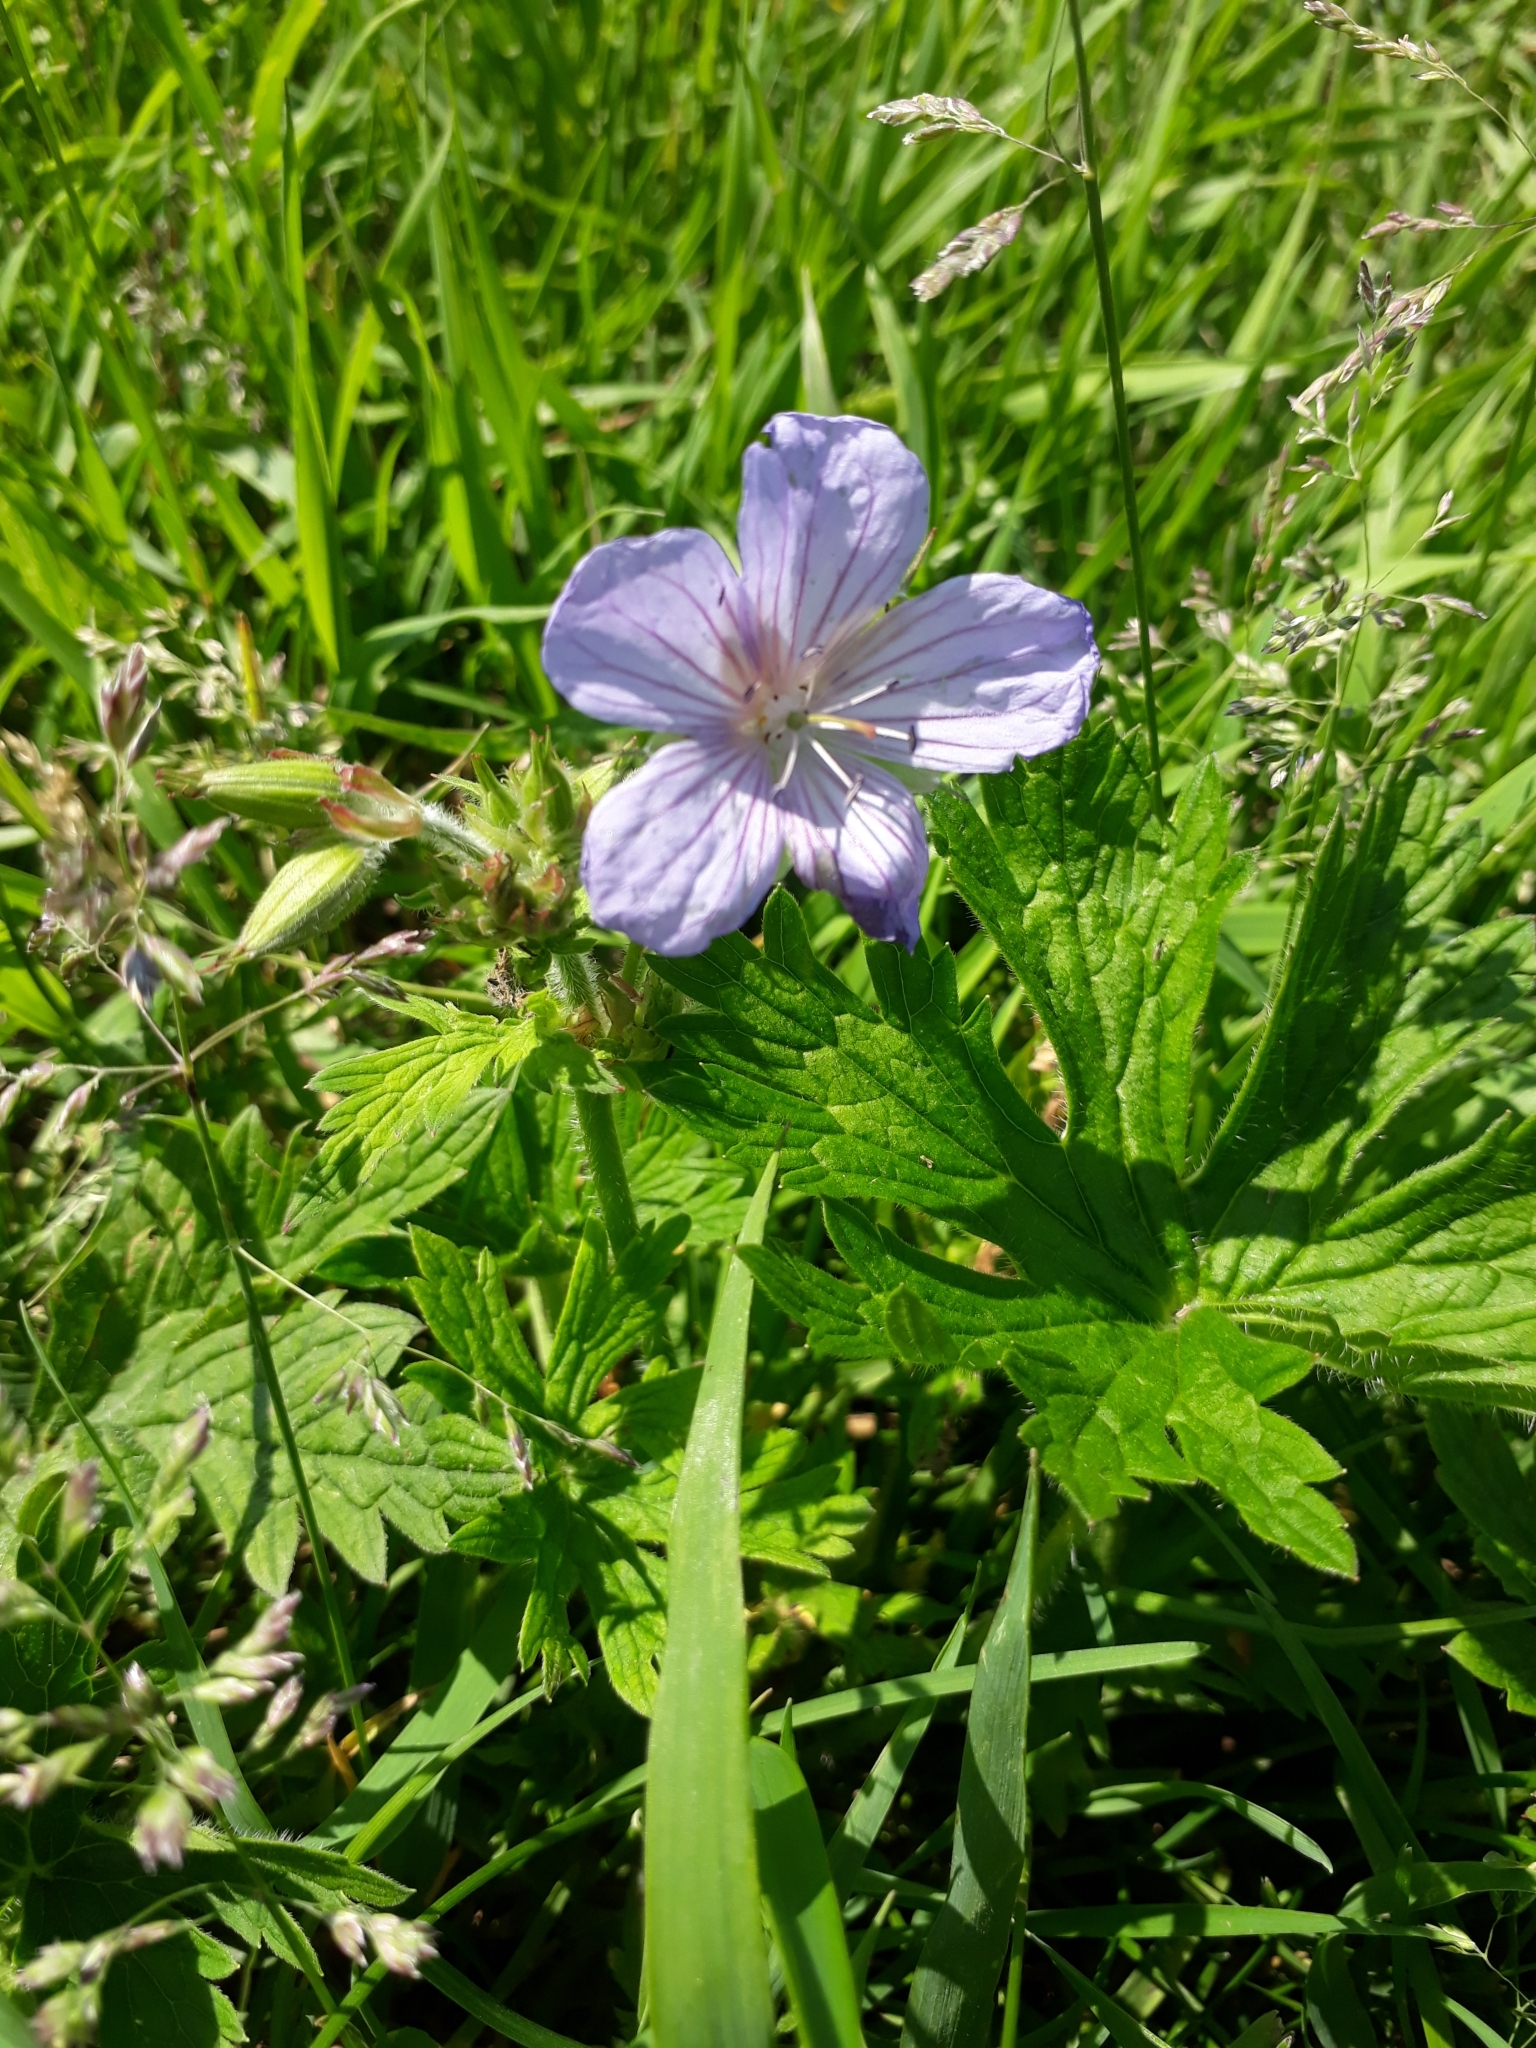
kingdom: Plantae
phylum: Tracheophyta
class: Magnoliopsida
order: Geraniales
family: Geraniaceae
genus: Geranium
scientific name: Geranium pratense
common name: Meadow crane's-bill
